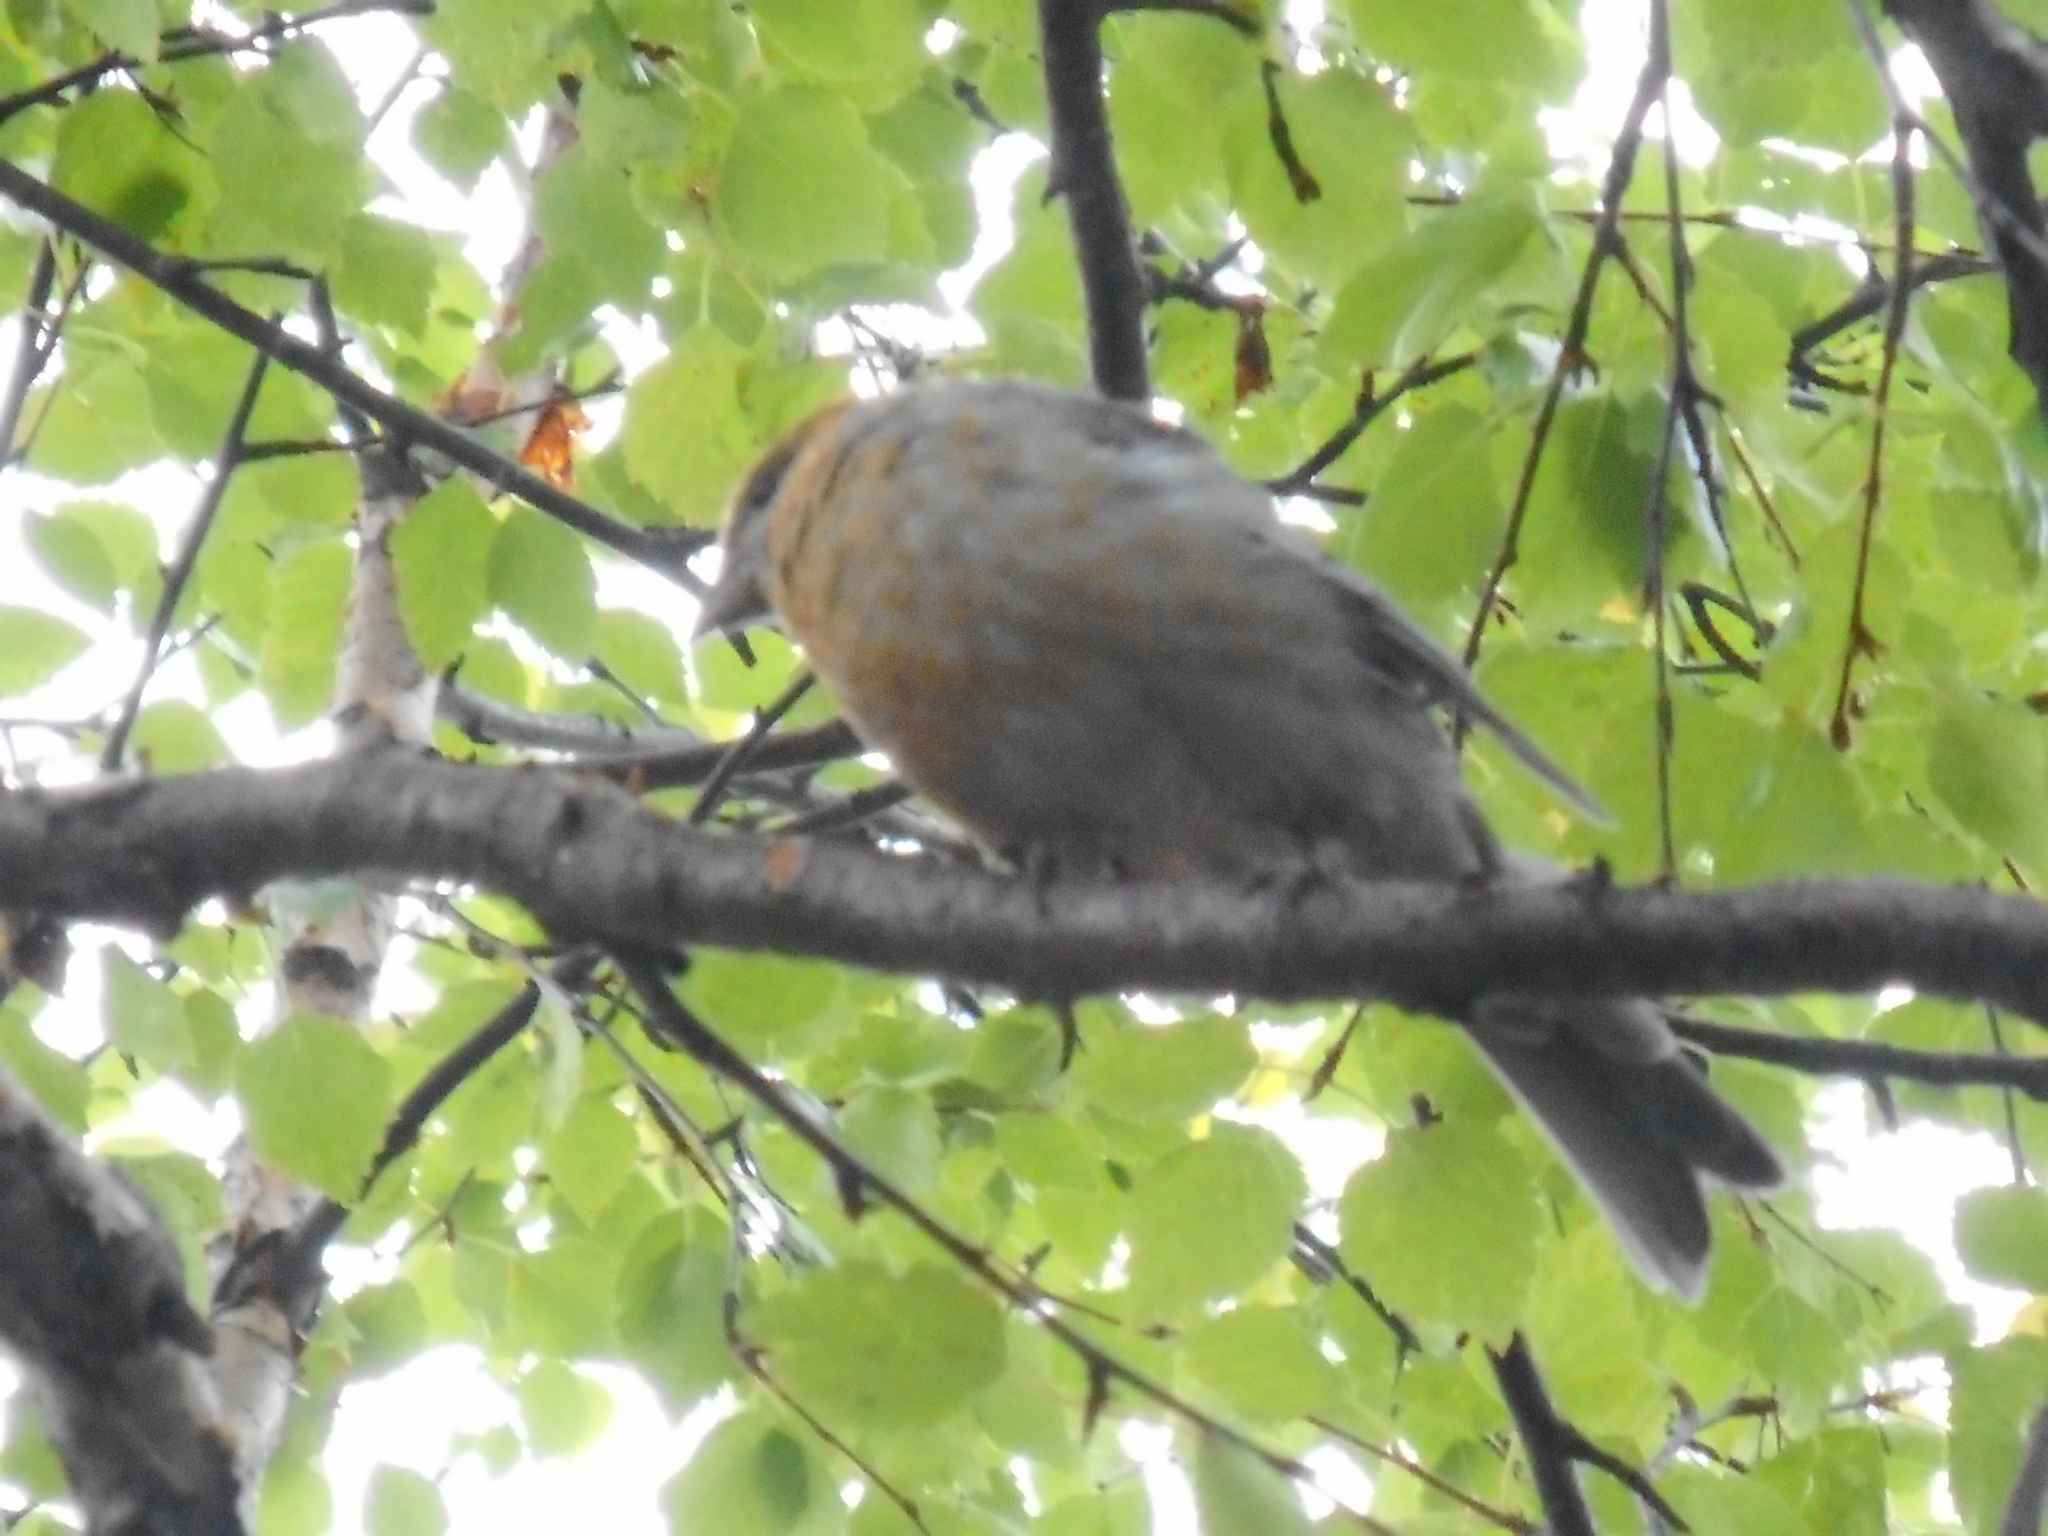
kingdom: Animalia
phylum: Chordata
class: Aves
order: Passeriformes
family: Fringillidae
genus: Pinicola
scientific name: Pinicola enucleator
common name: Pine grosbeak
